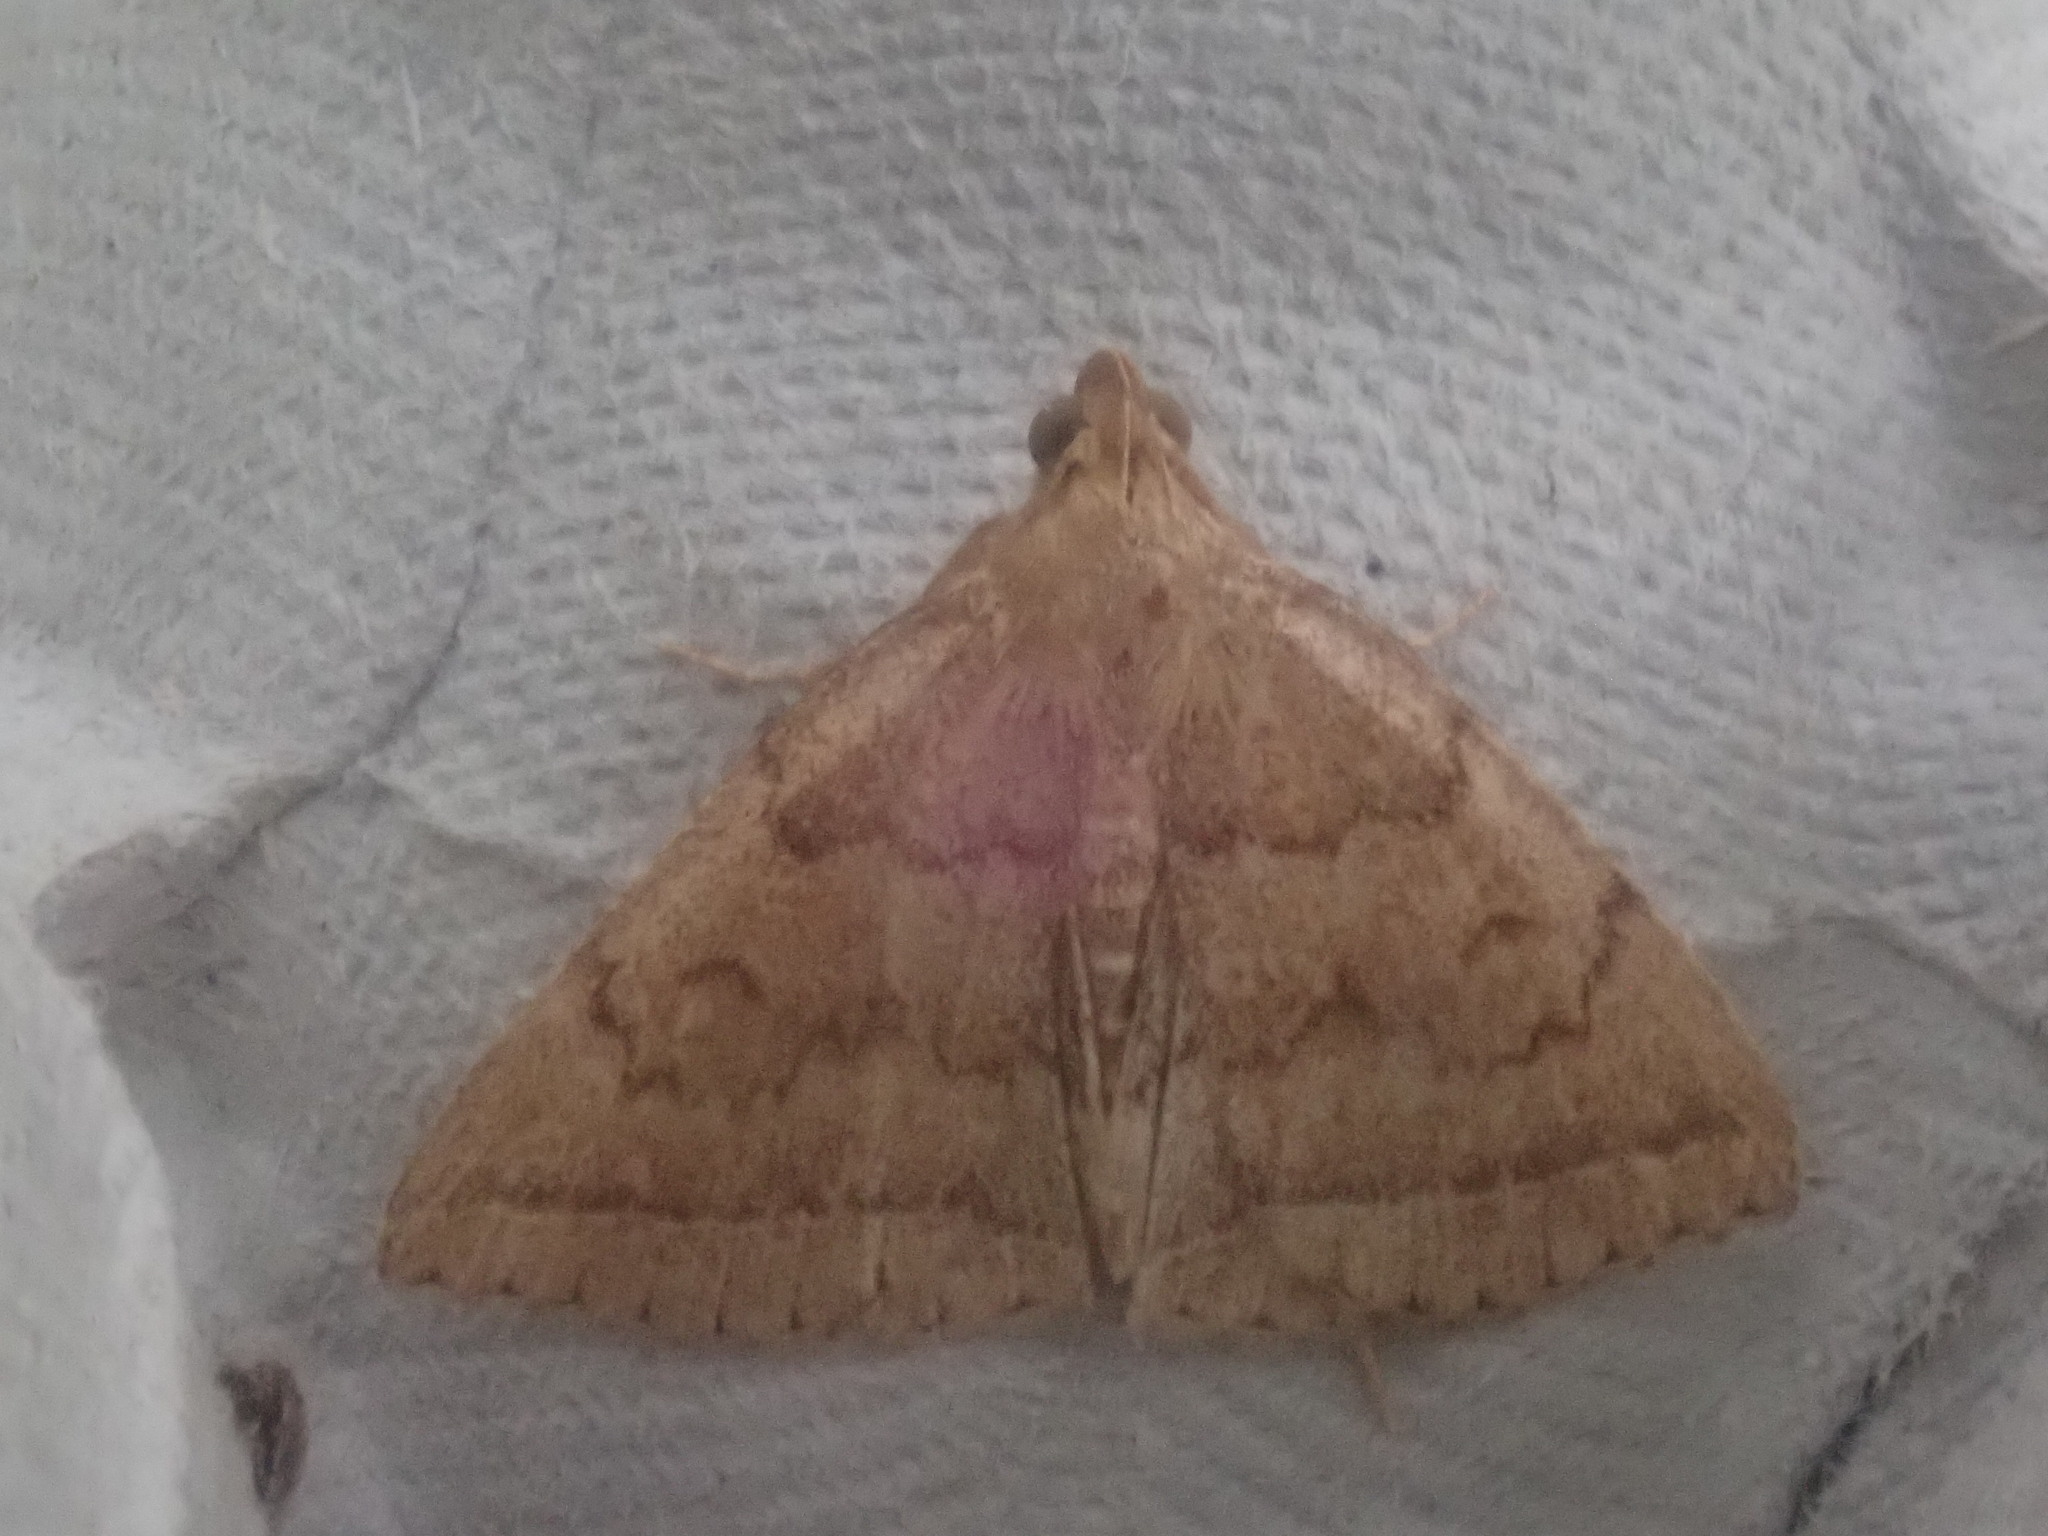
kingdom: Animalia
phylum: Arthropoda
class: Insecta
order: Lepidoptera
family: Erebidae
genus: Zanclognatha
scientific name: Zanclognatha jacchusalis
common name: Yellowish zanclognatha
